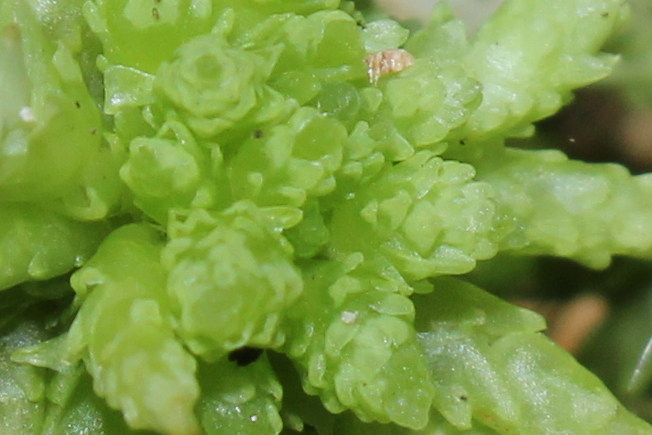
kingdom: Plantae
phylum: Bryophyta
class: Sphagnopsida
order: Sphagnales
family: Sphagnaceae
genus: Sphagnum
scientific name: Sphagnum palustre
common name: Blunt-leaved bog-moss
